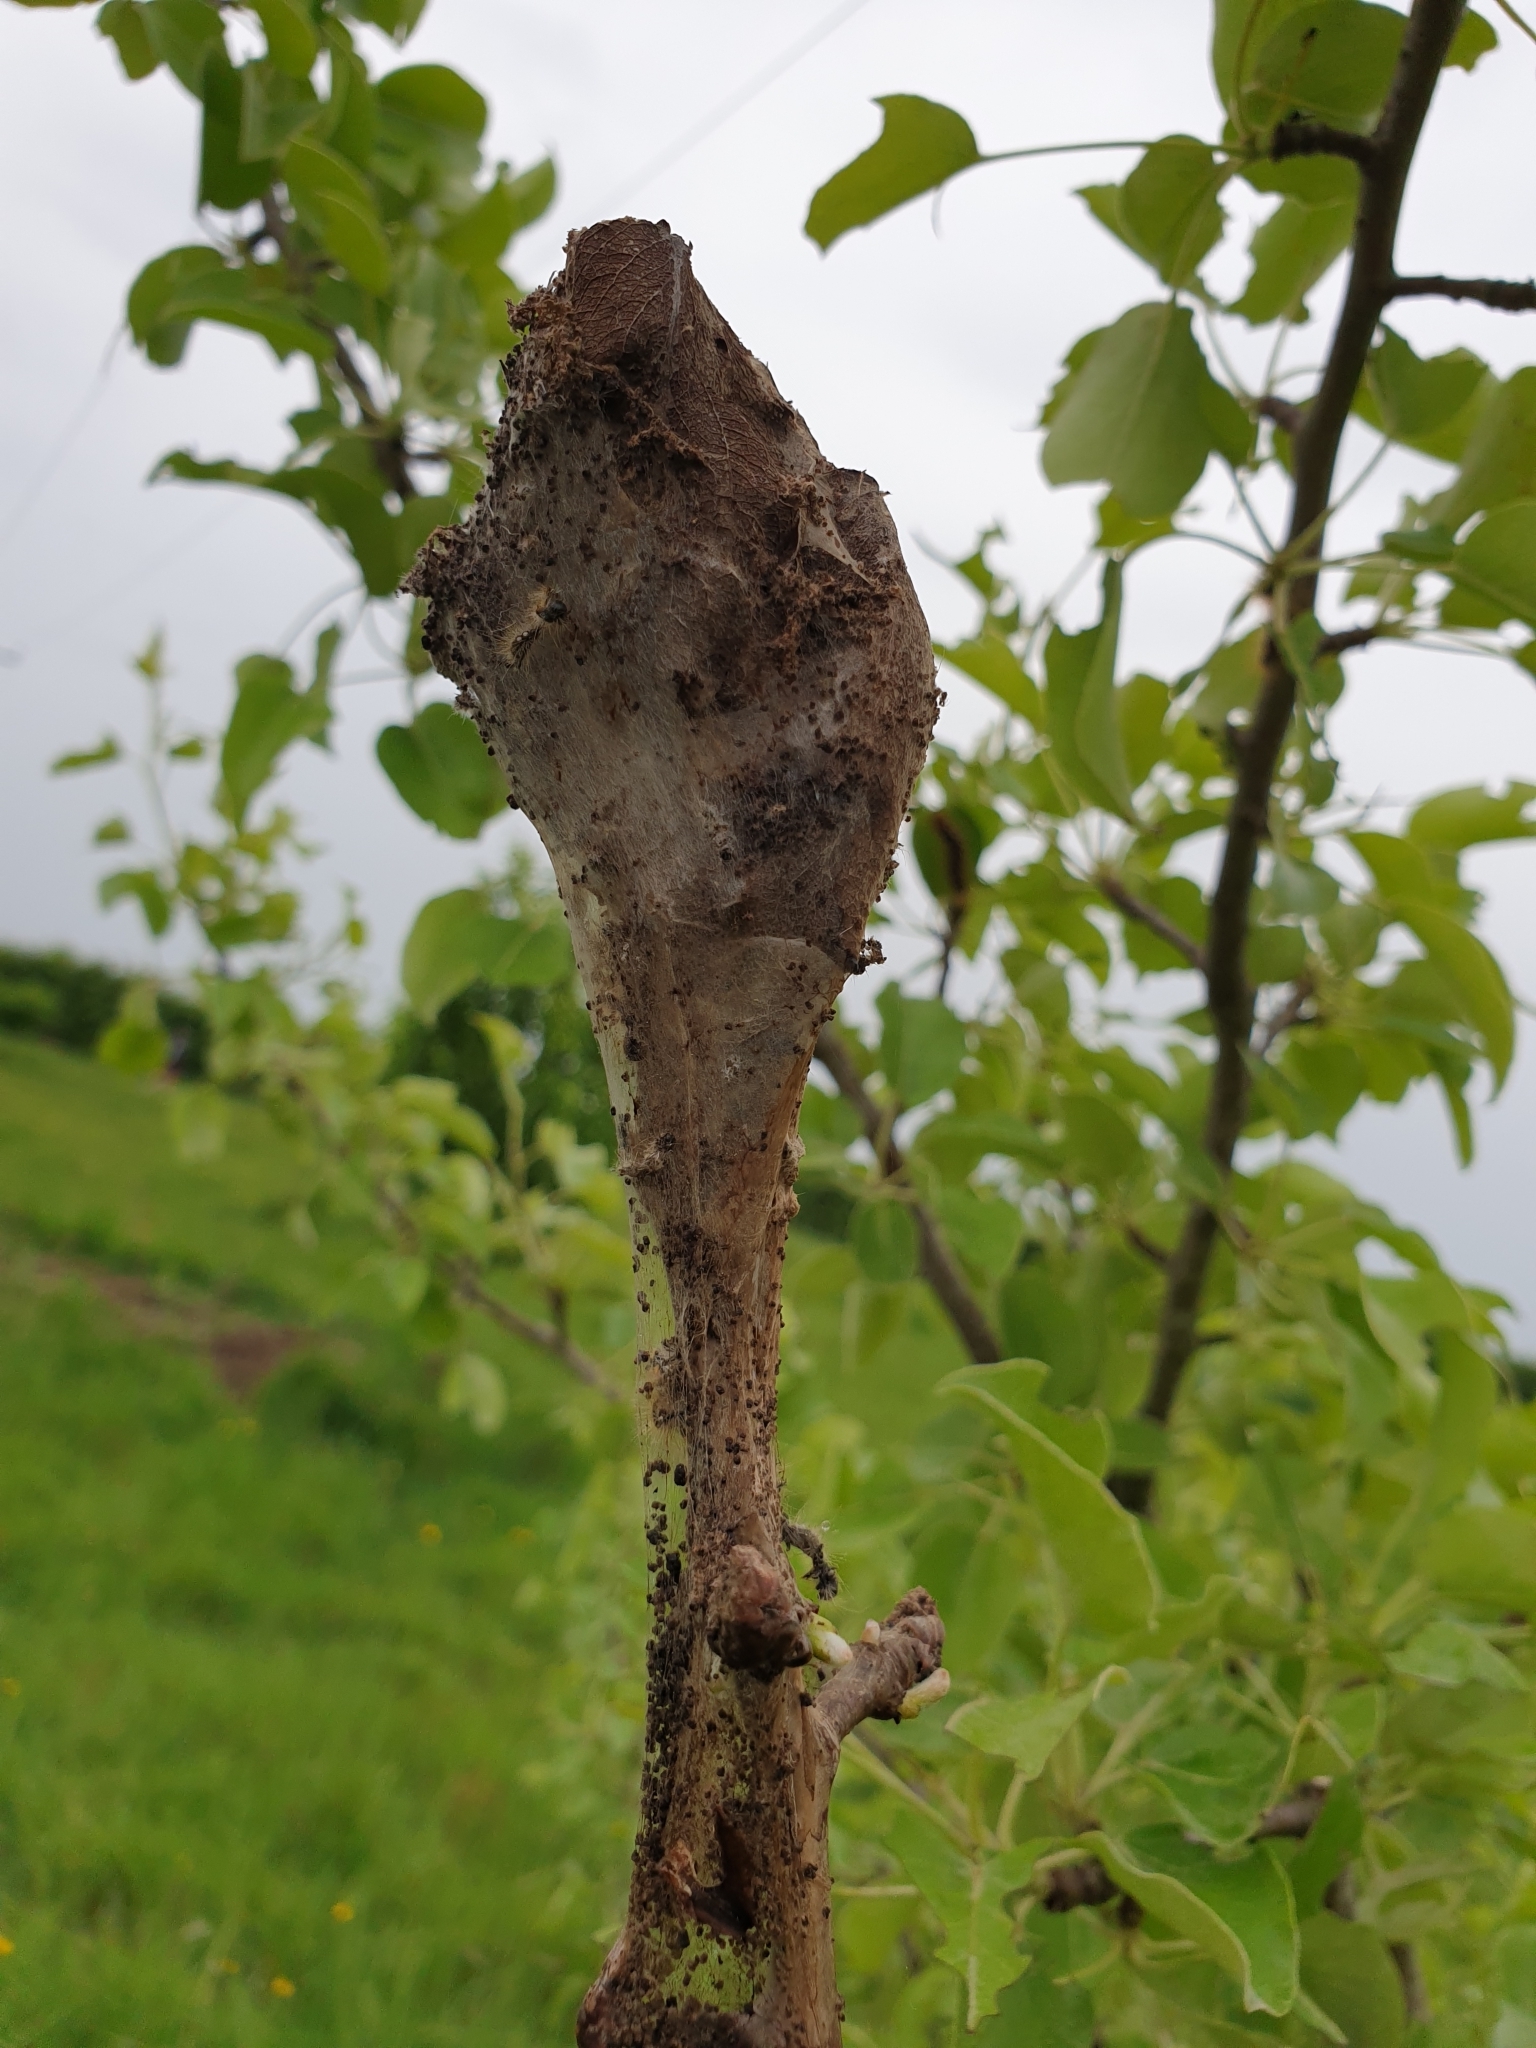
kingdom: Animalia
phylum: Arthropoda
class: Insecta
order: Lepidoptera
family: Erebidae
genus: Euproctis
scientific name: Euproctis chrysorrhoea
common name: Brown-tail
